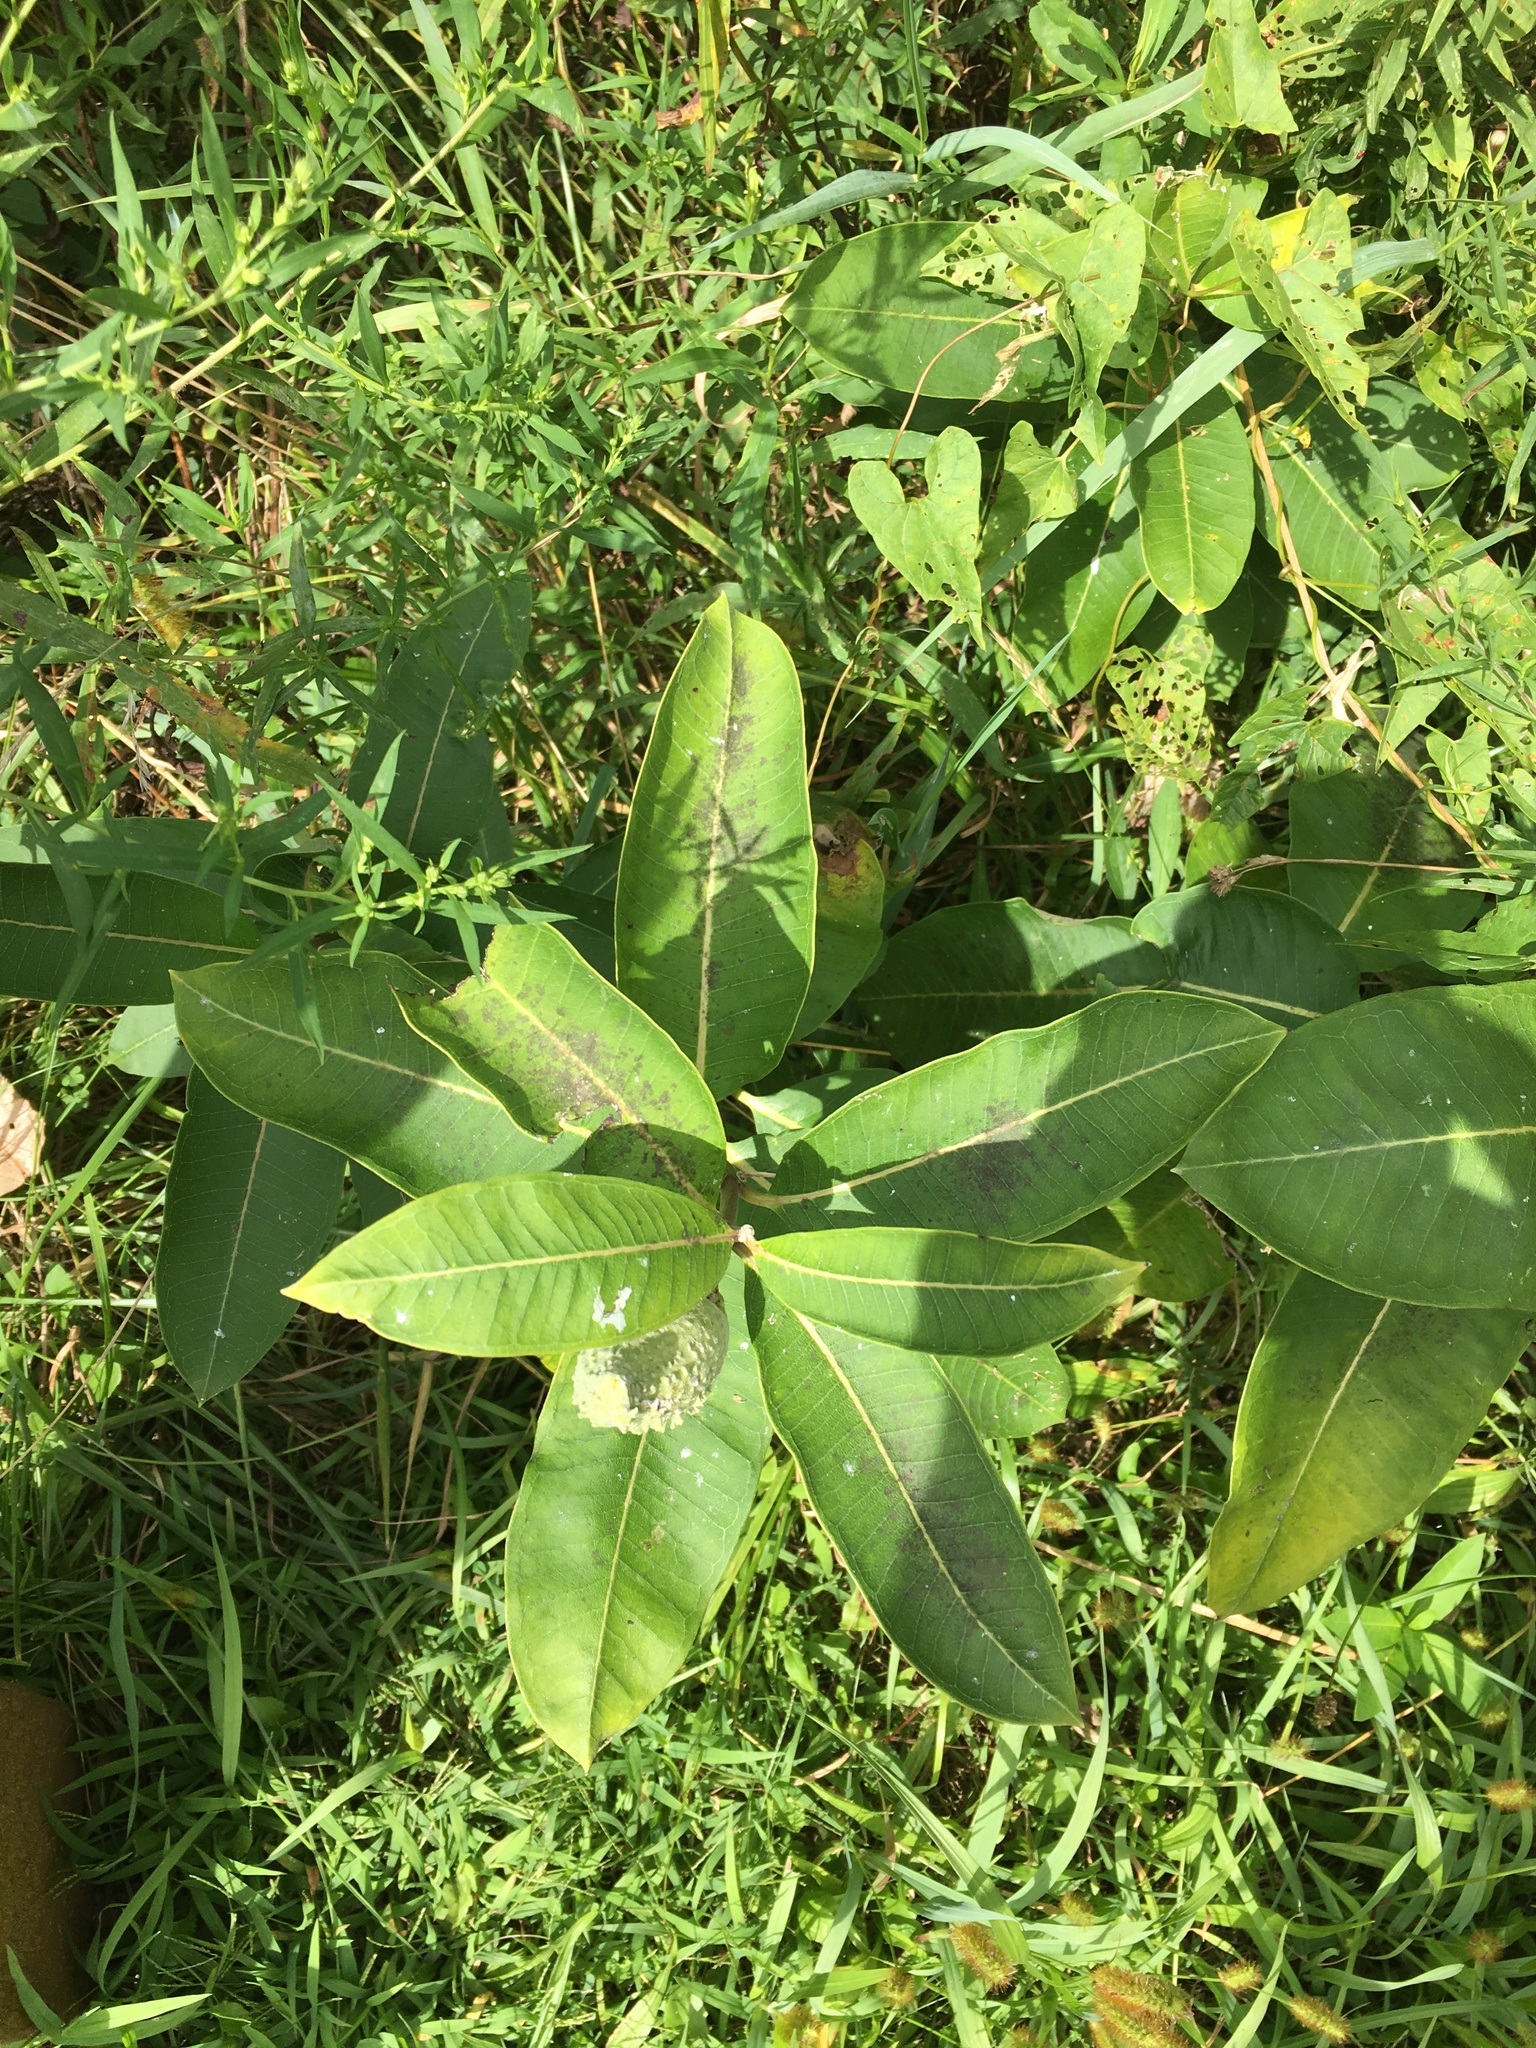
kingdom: Plantae
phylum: Tracheophyta
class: Magnoliopsida
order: Gentianales
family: Apocynaceae
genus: Asclepias
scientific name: Asclepias syriaca
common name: Common milkweed
